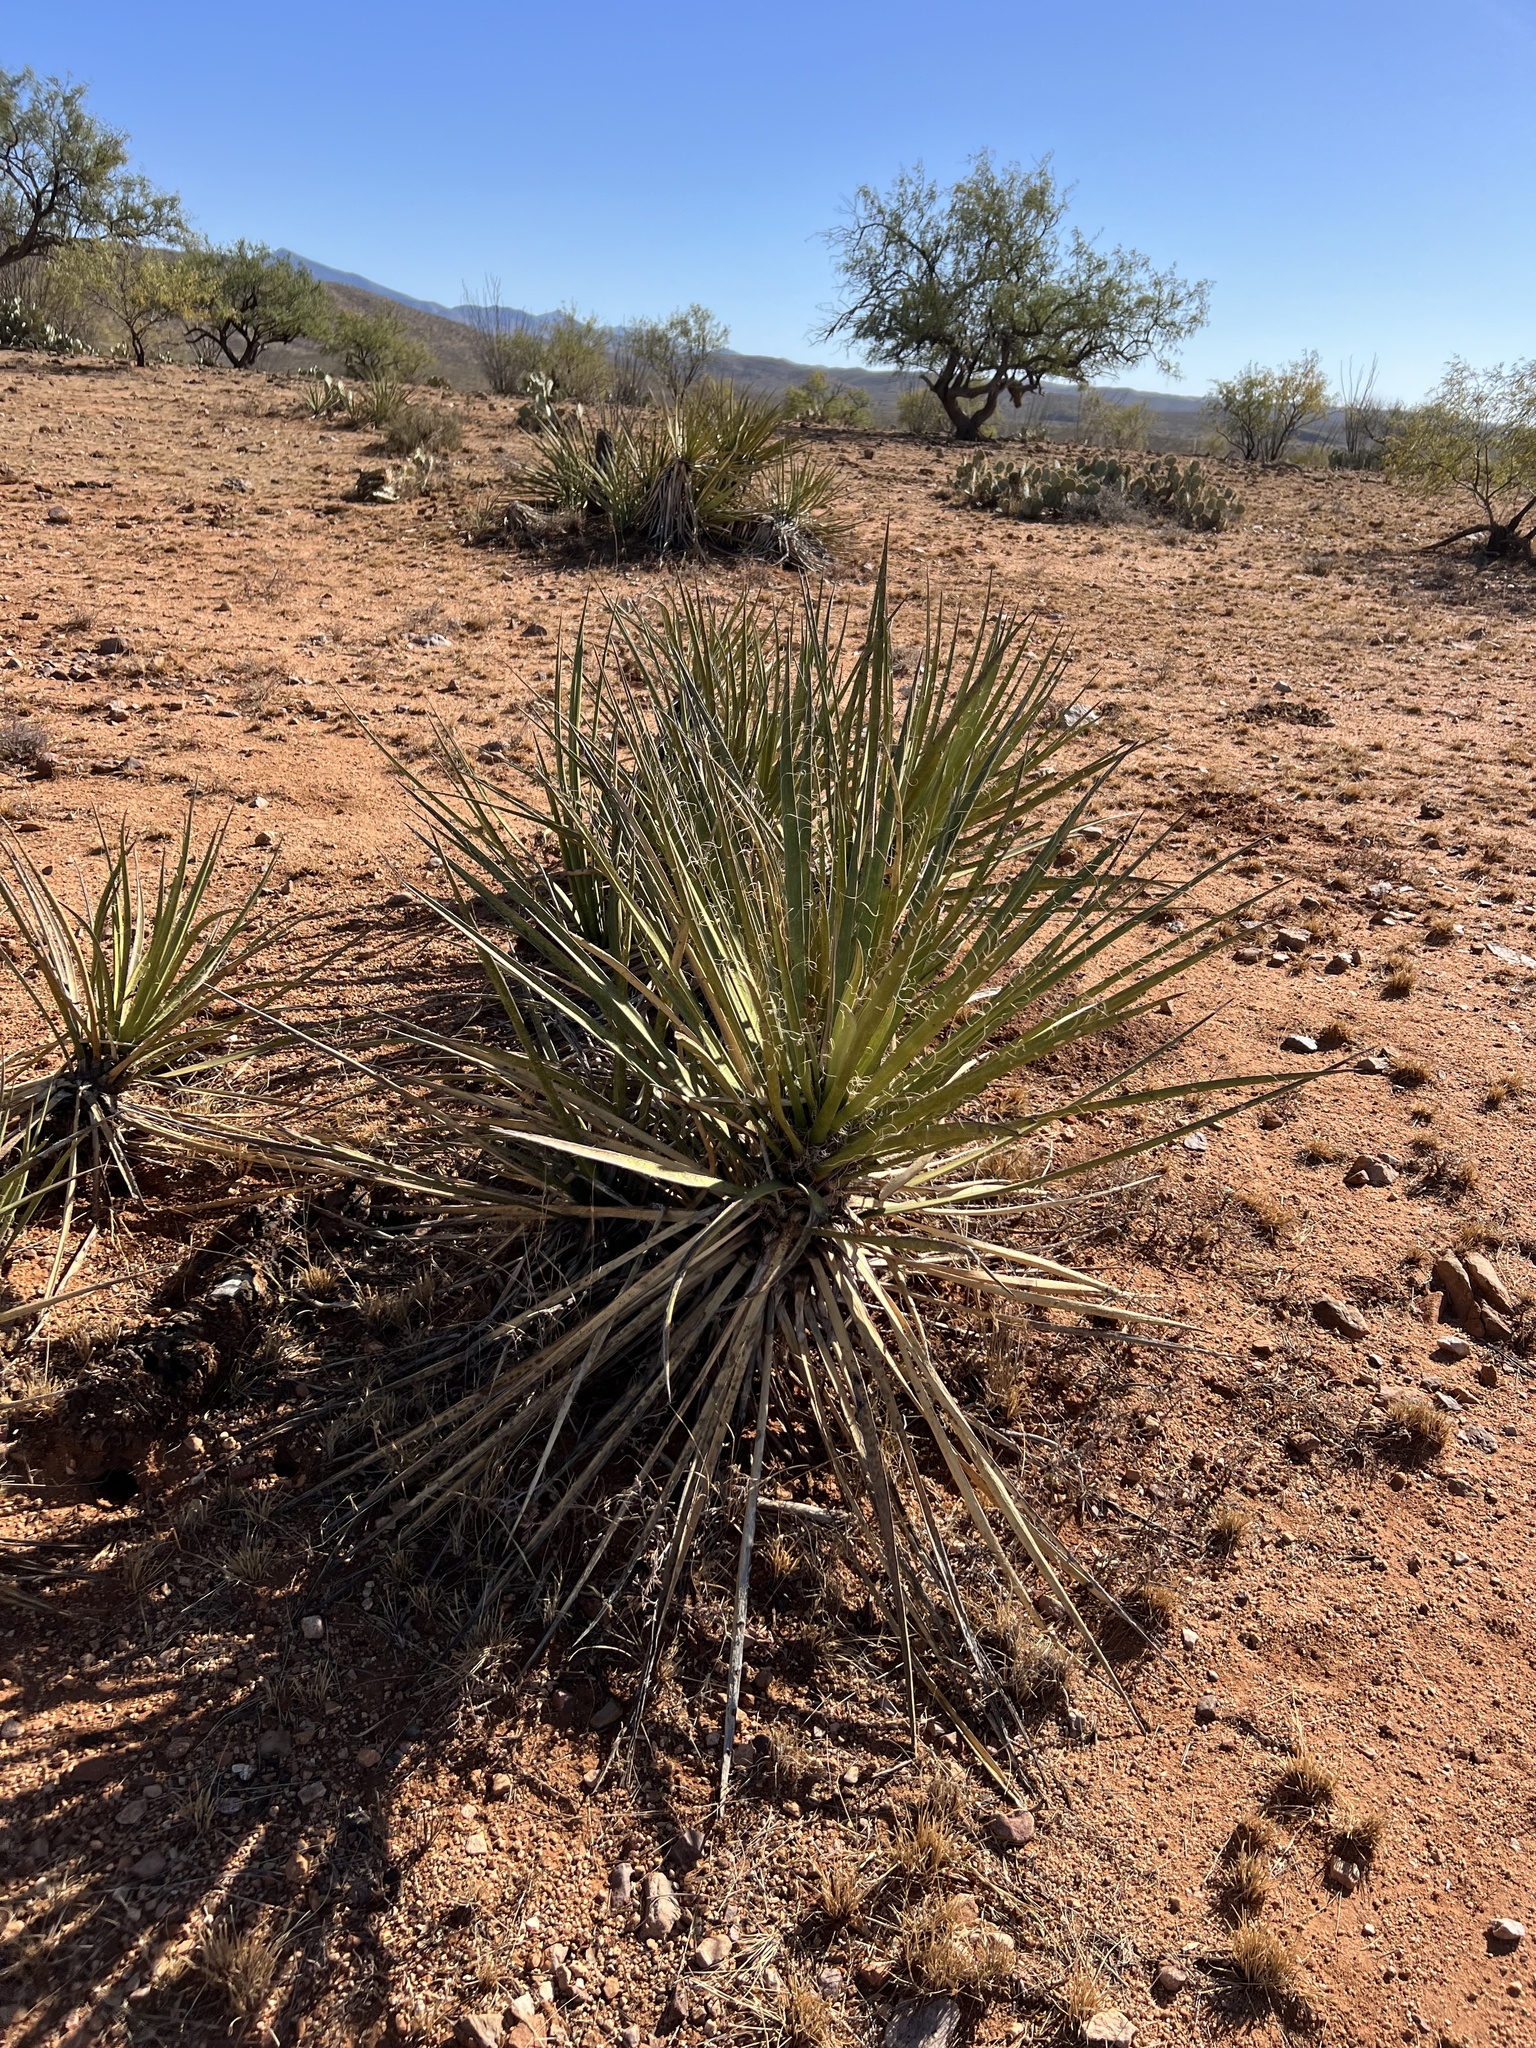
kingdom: Plantae
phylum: Tracheophyta
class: Liliopsida
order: Asparagales
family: Asparagaceae
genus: Yucca
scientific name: Yucca baccata
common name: Banana yucca
